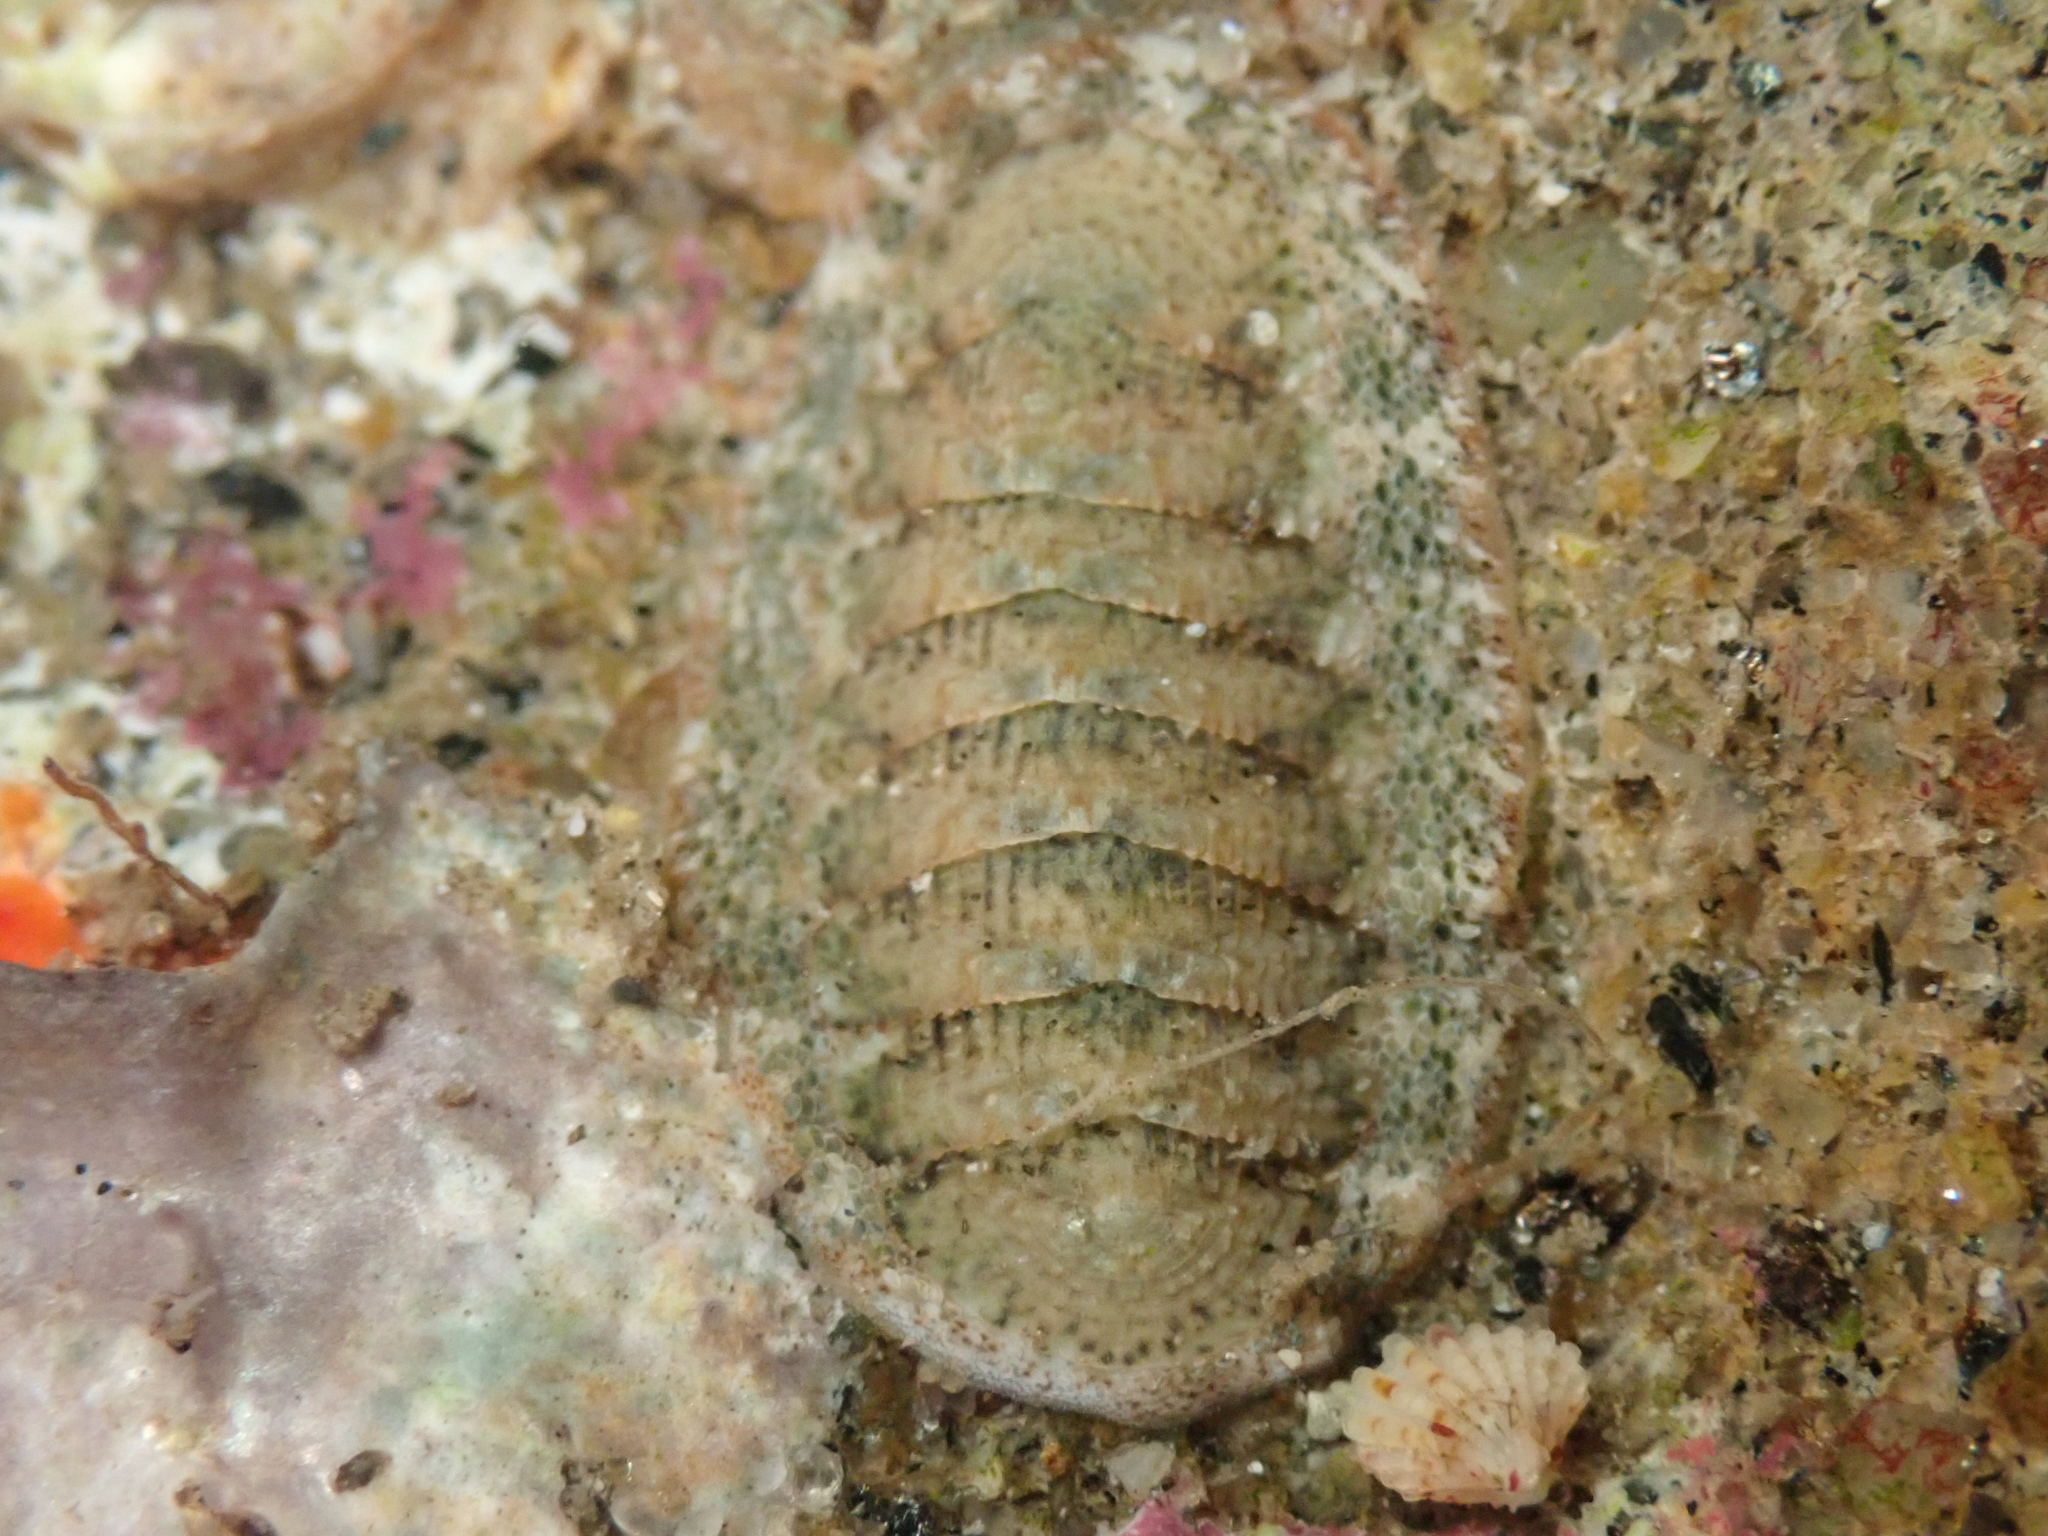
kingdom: Animalia
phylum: Mollusca
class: Polyplacophora
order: Chitonida
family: Ischnochitonidae
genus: Lepidozona
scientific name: Lepidozona pectinulata
